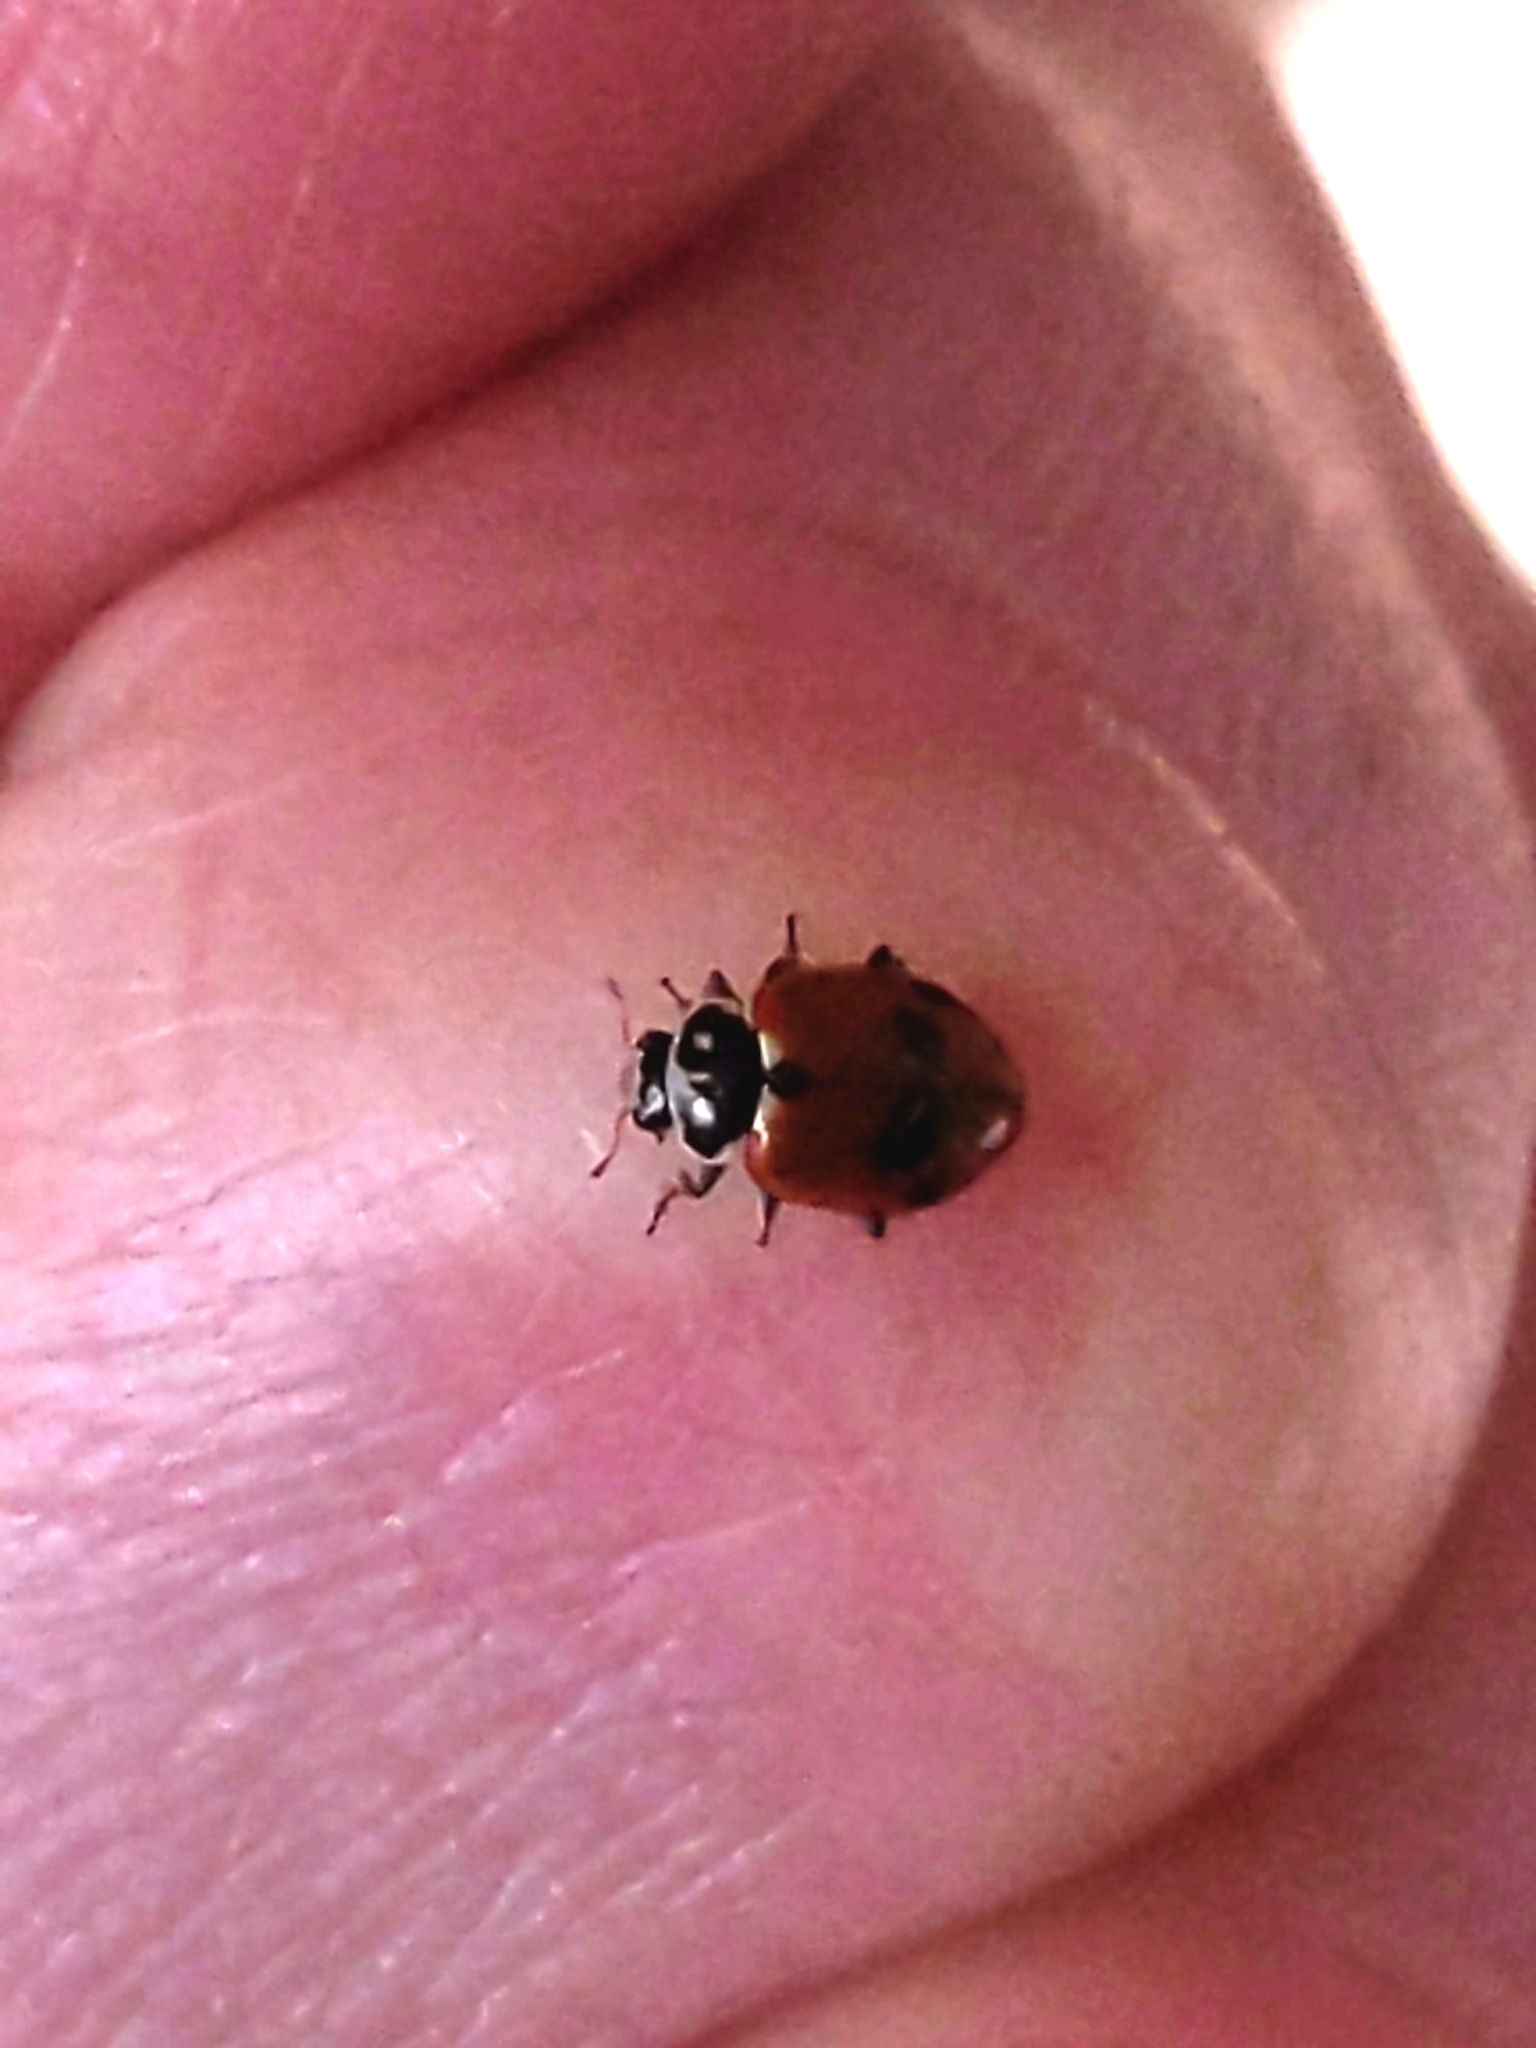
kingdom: Animalia
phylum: Arthropoda
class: Insecta
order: Coleoptera
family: Coccinellidae
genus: Hippodamia
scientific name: Hippodamia variegata
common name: Ladybird beetle
